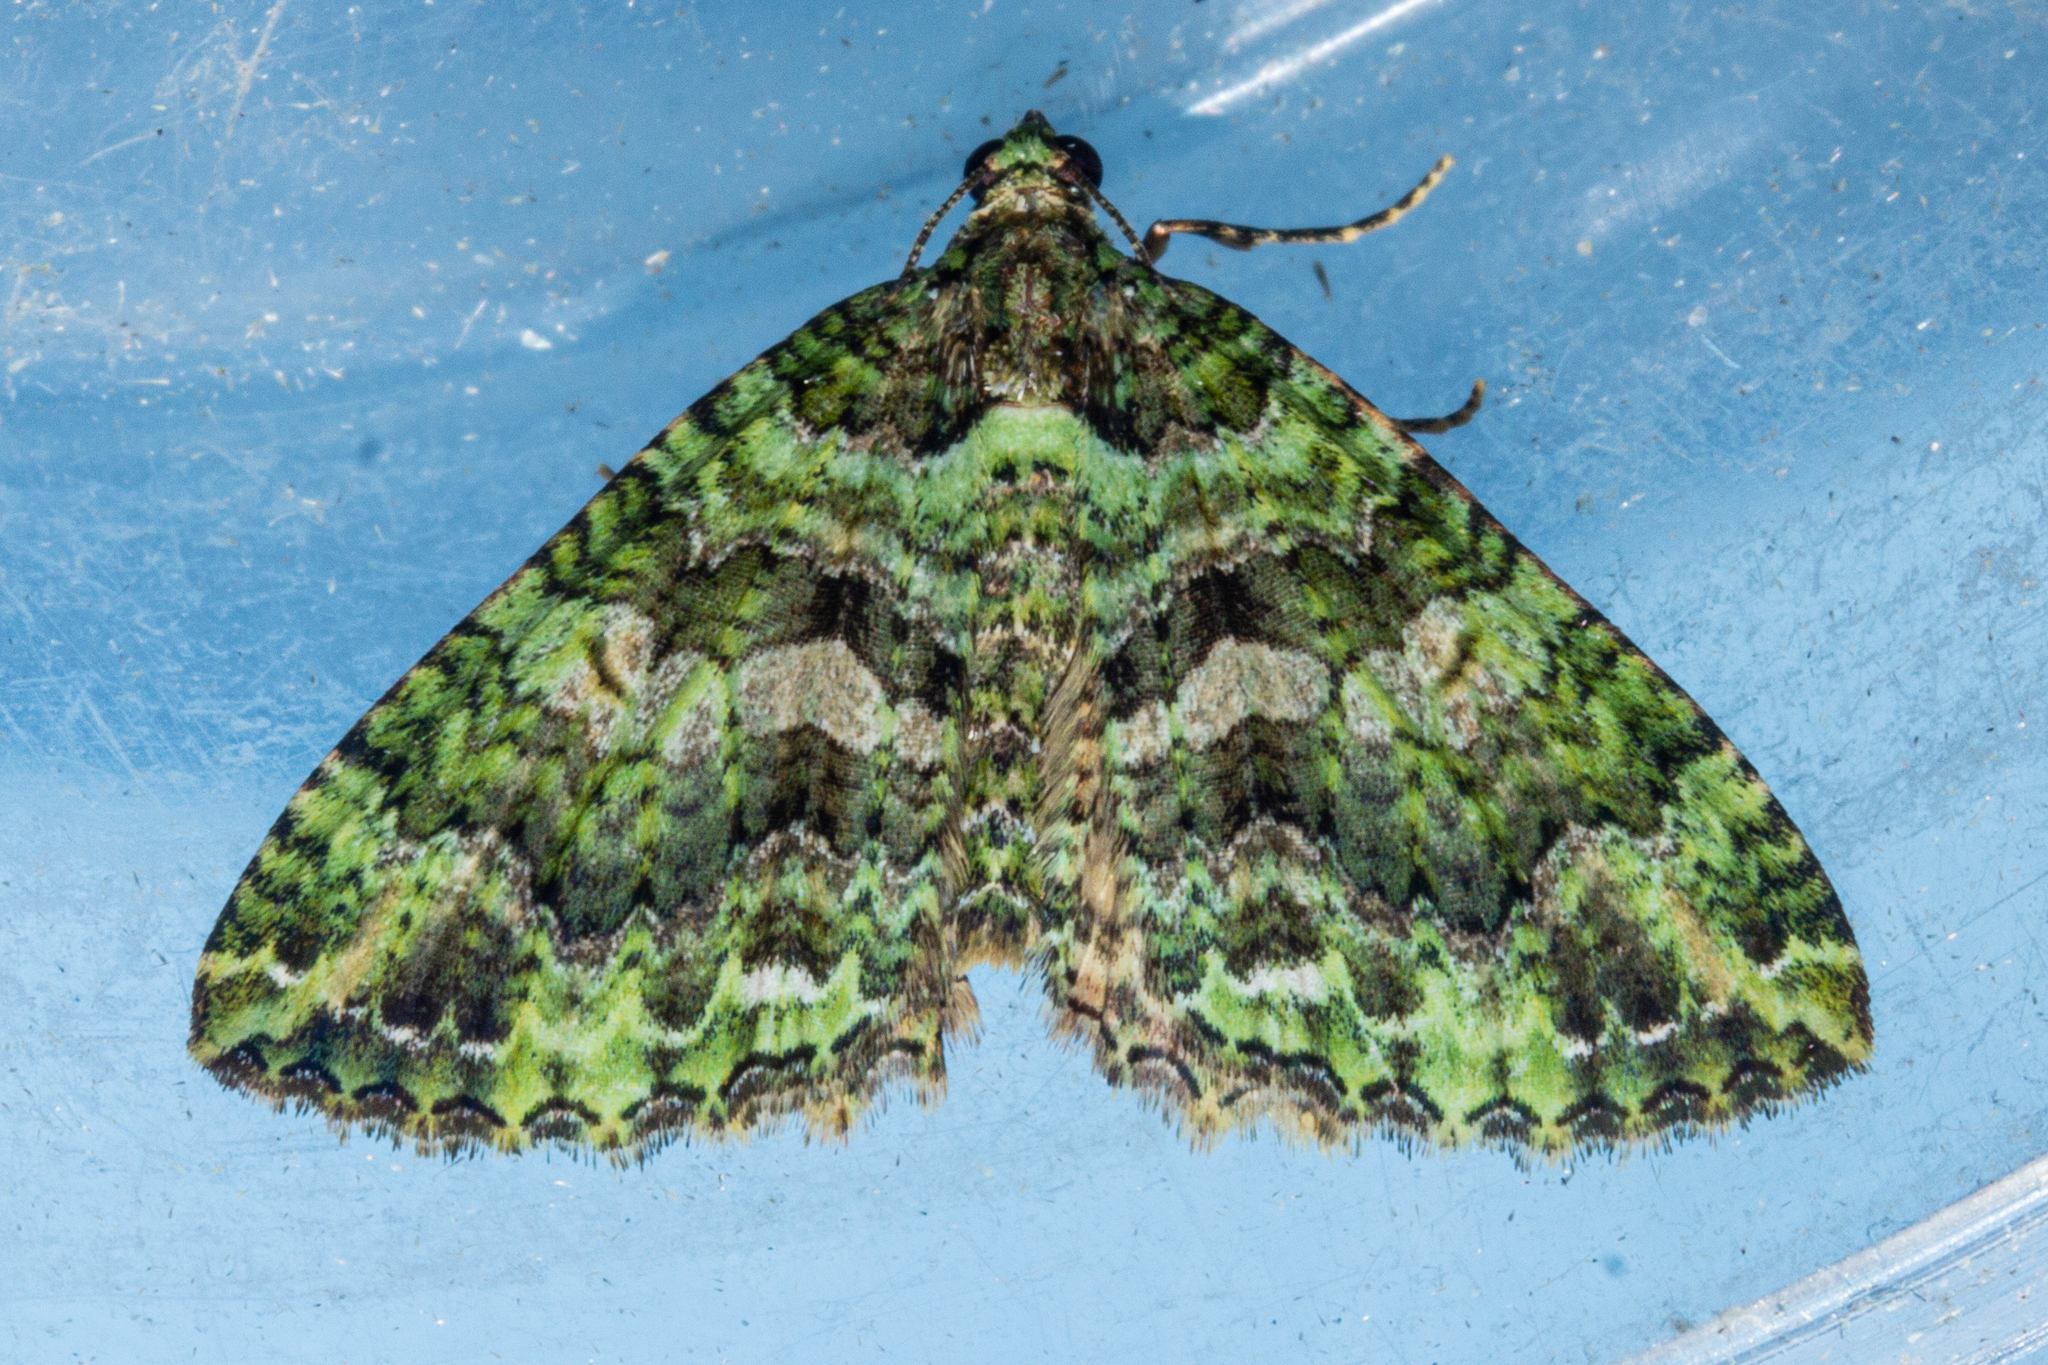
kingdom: Animalia
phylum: Arthropoda
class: Insecta
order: Lepidoptera
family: Geometridae
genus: Austrocidaria
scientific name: Austrocidaria similata
